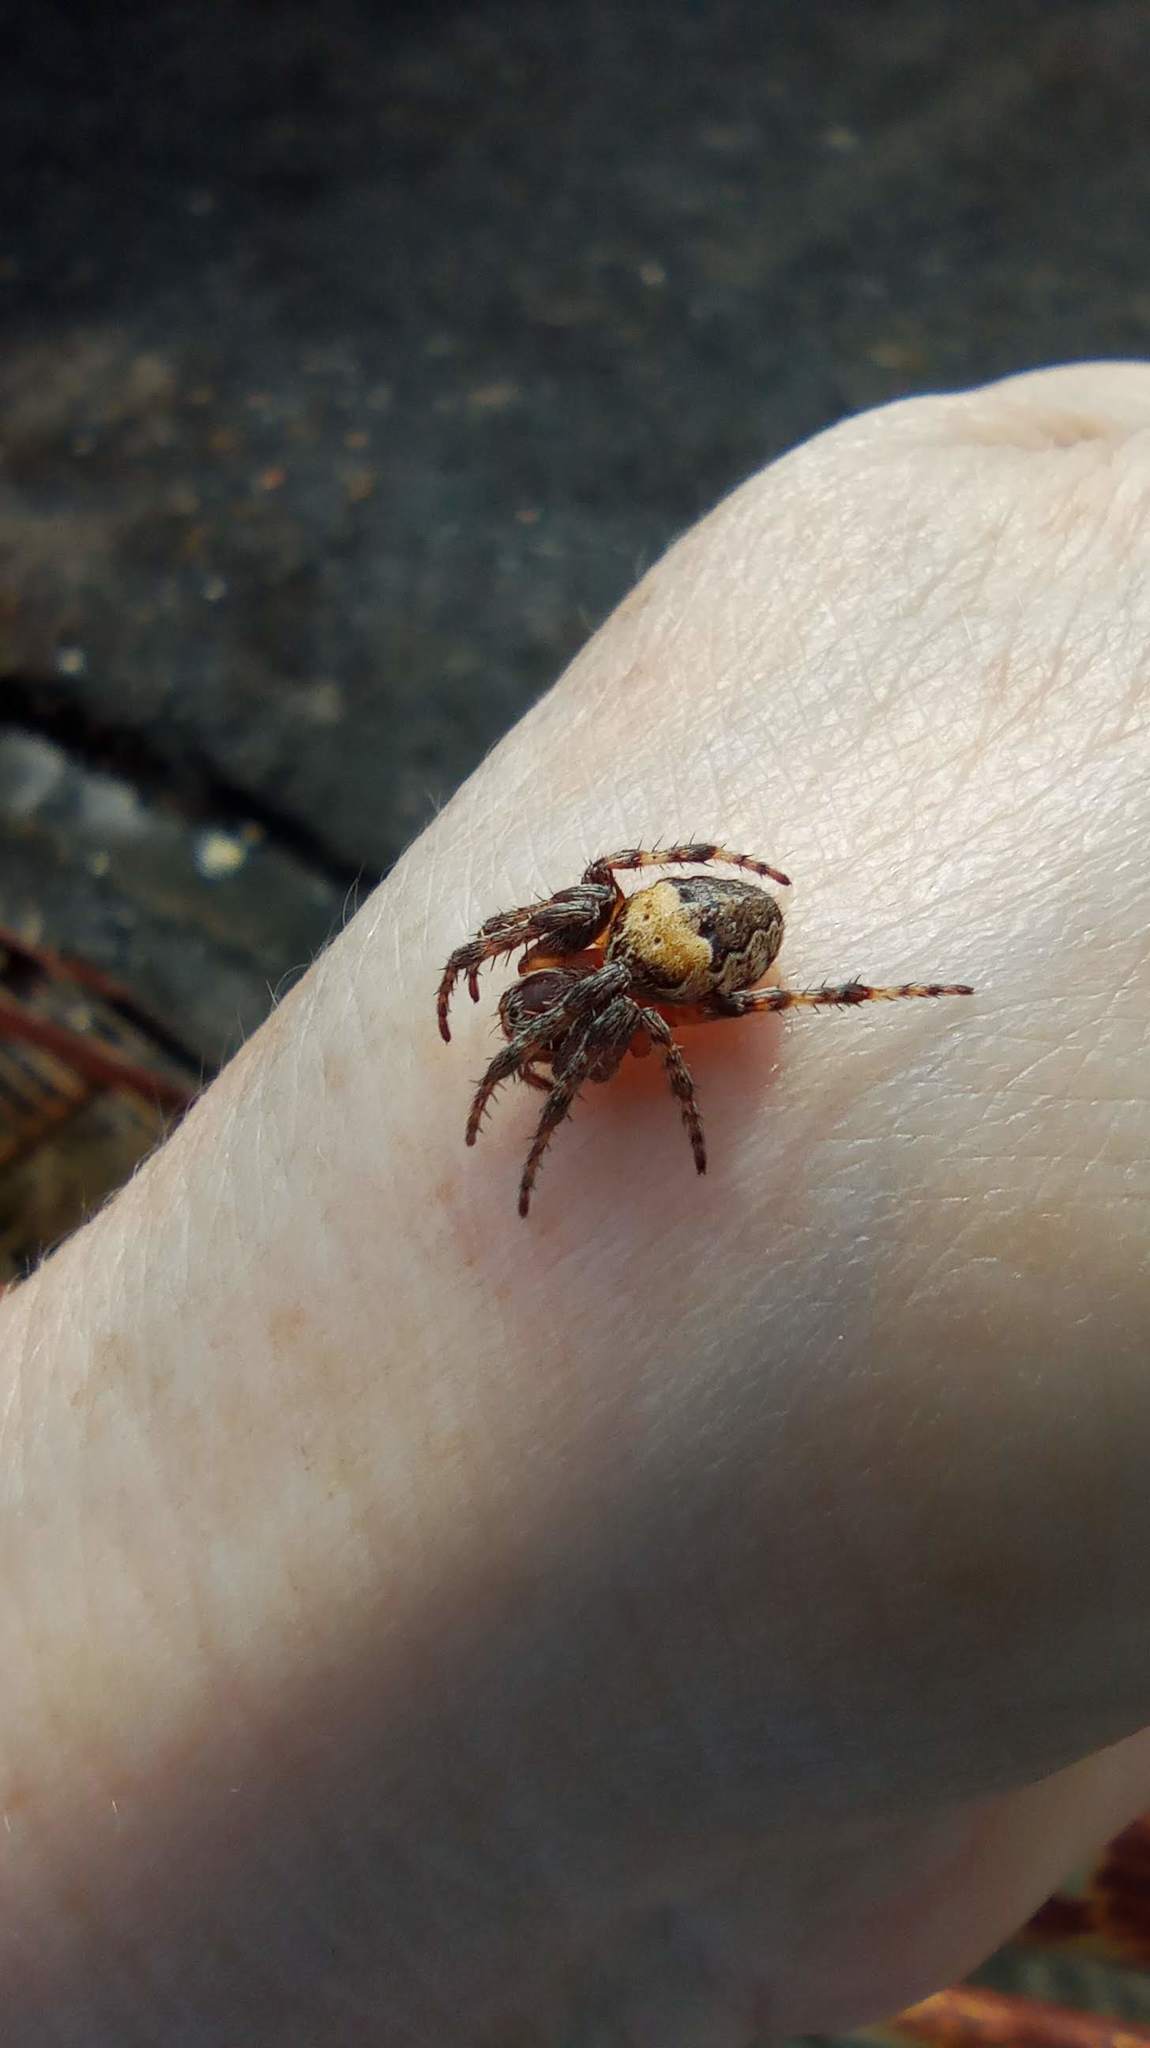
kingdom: Animalia
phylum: Arthropoda
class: Arachnida
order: Araneae
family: Araneidae
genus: Larinioides
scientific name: Larinioides patagiatus
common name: Ornamental orbweaver
